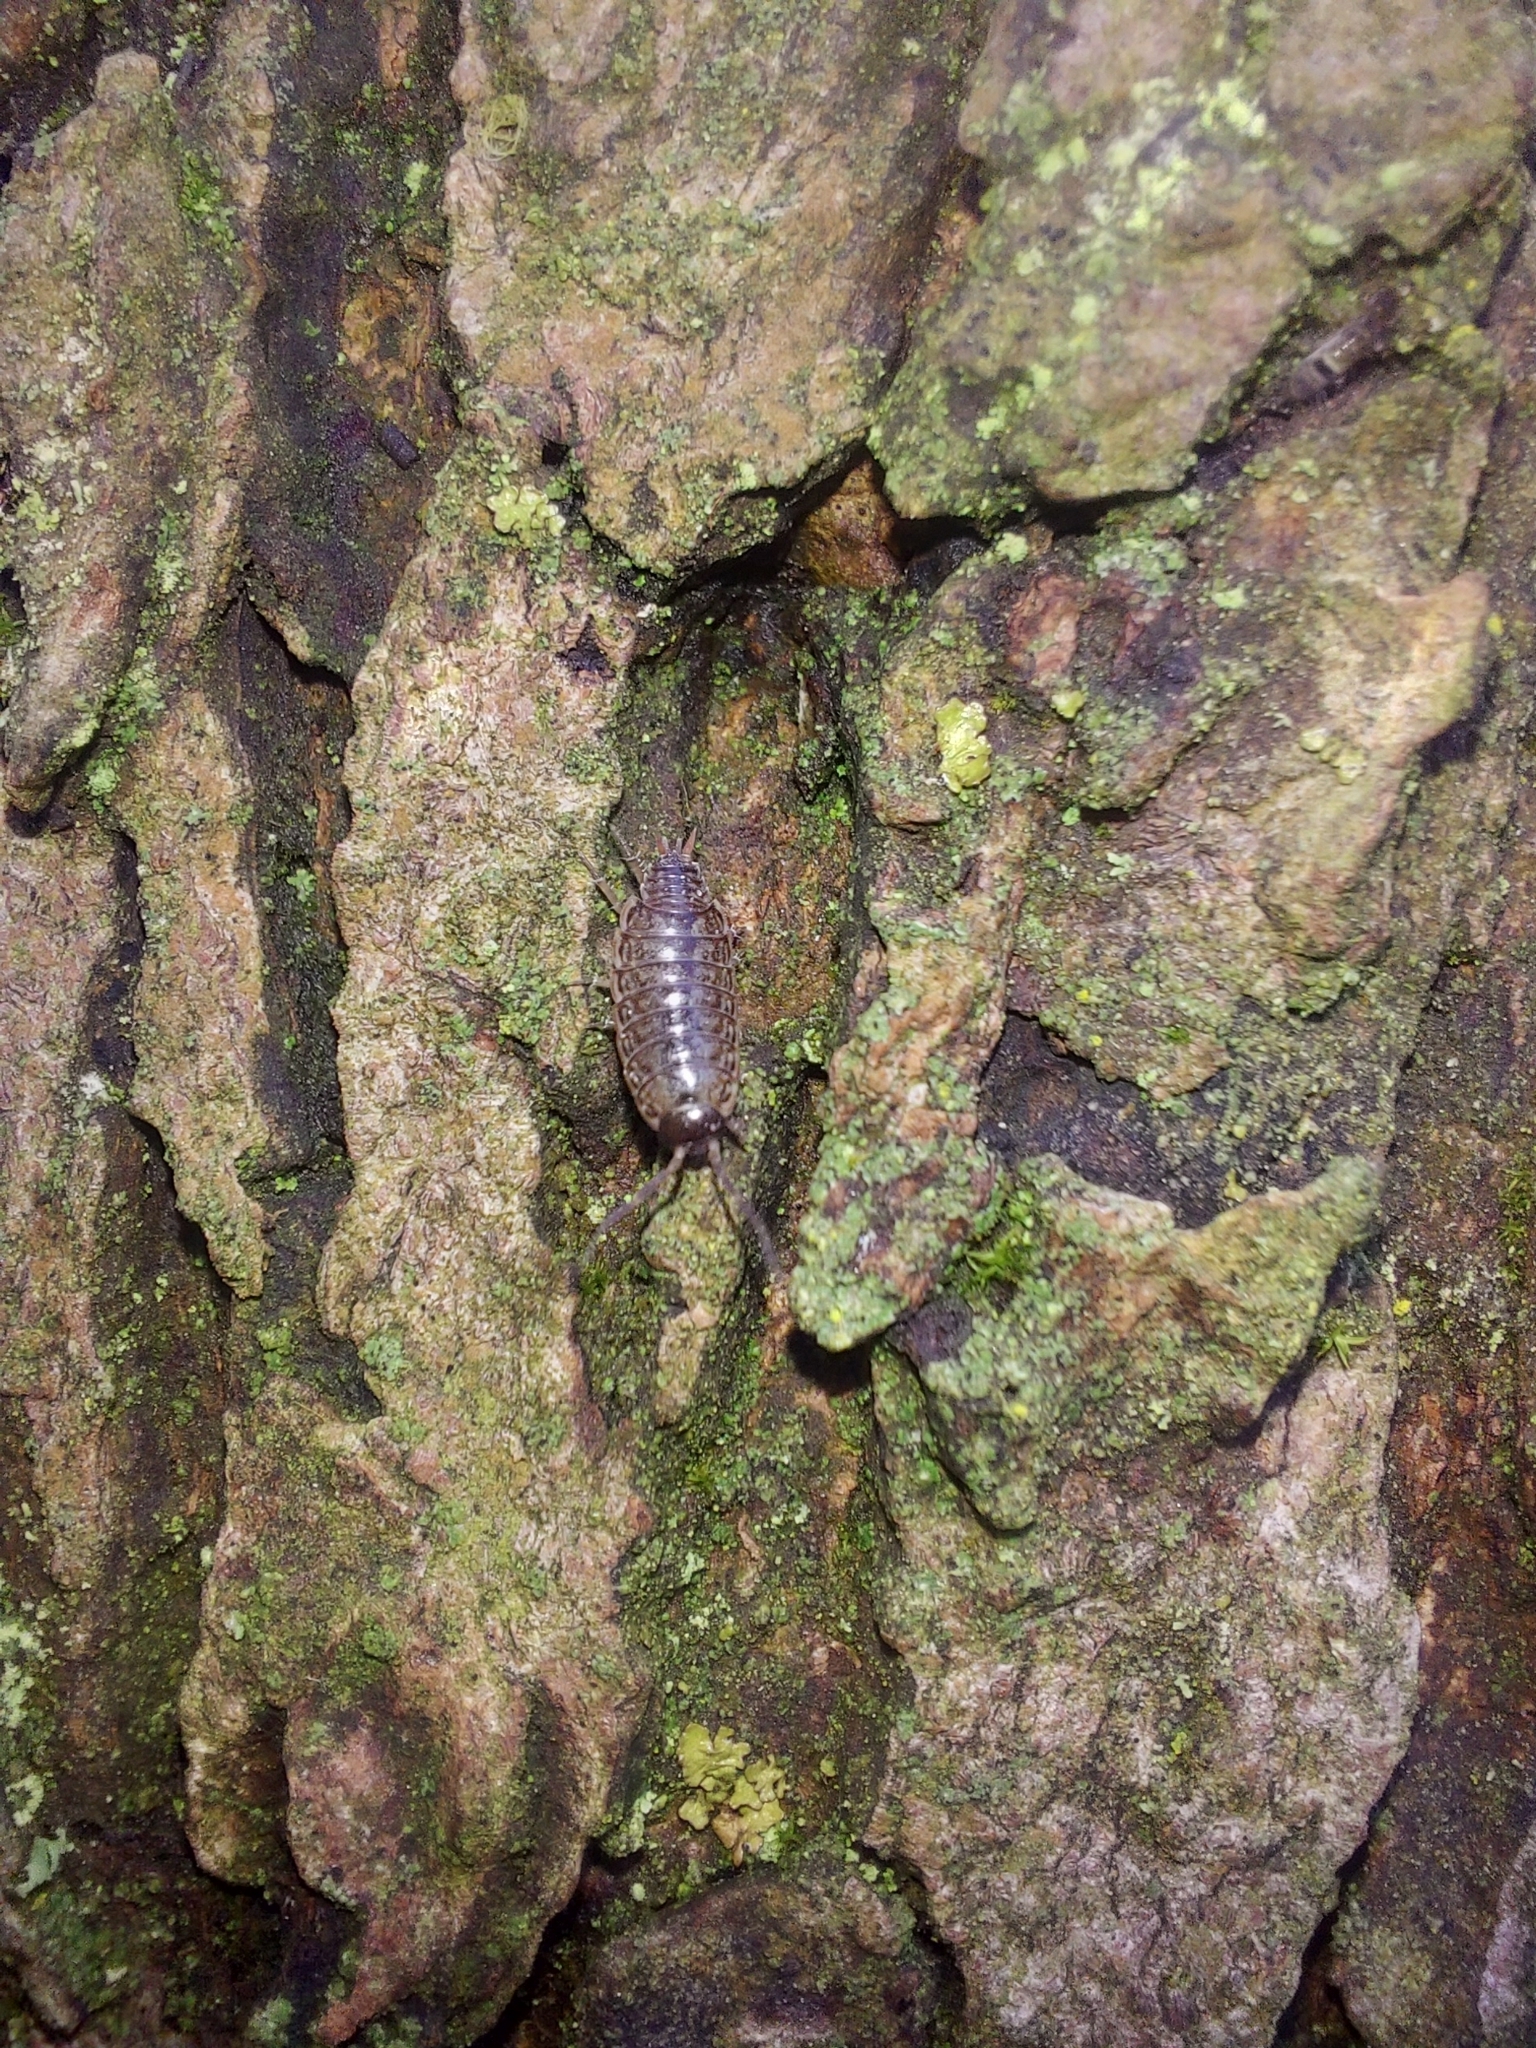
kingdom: Animalia
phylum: Arthropoda
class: Malacostraca
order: Isopoda
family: Philosciidae
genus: Philoscia
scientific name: Philoscia muscorum
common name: Common striped woodlouse
